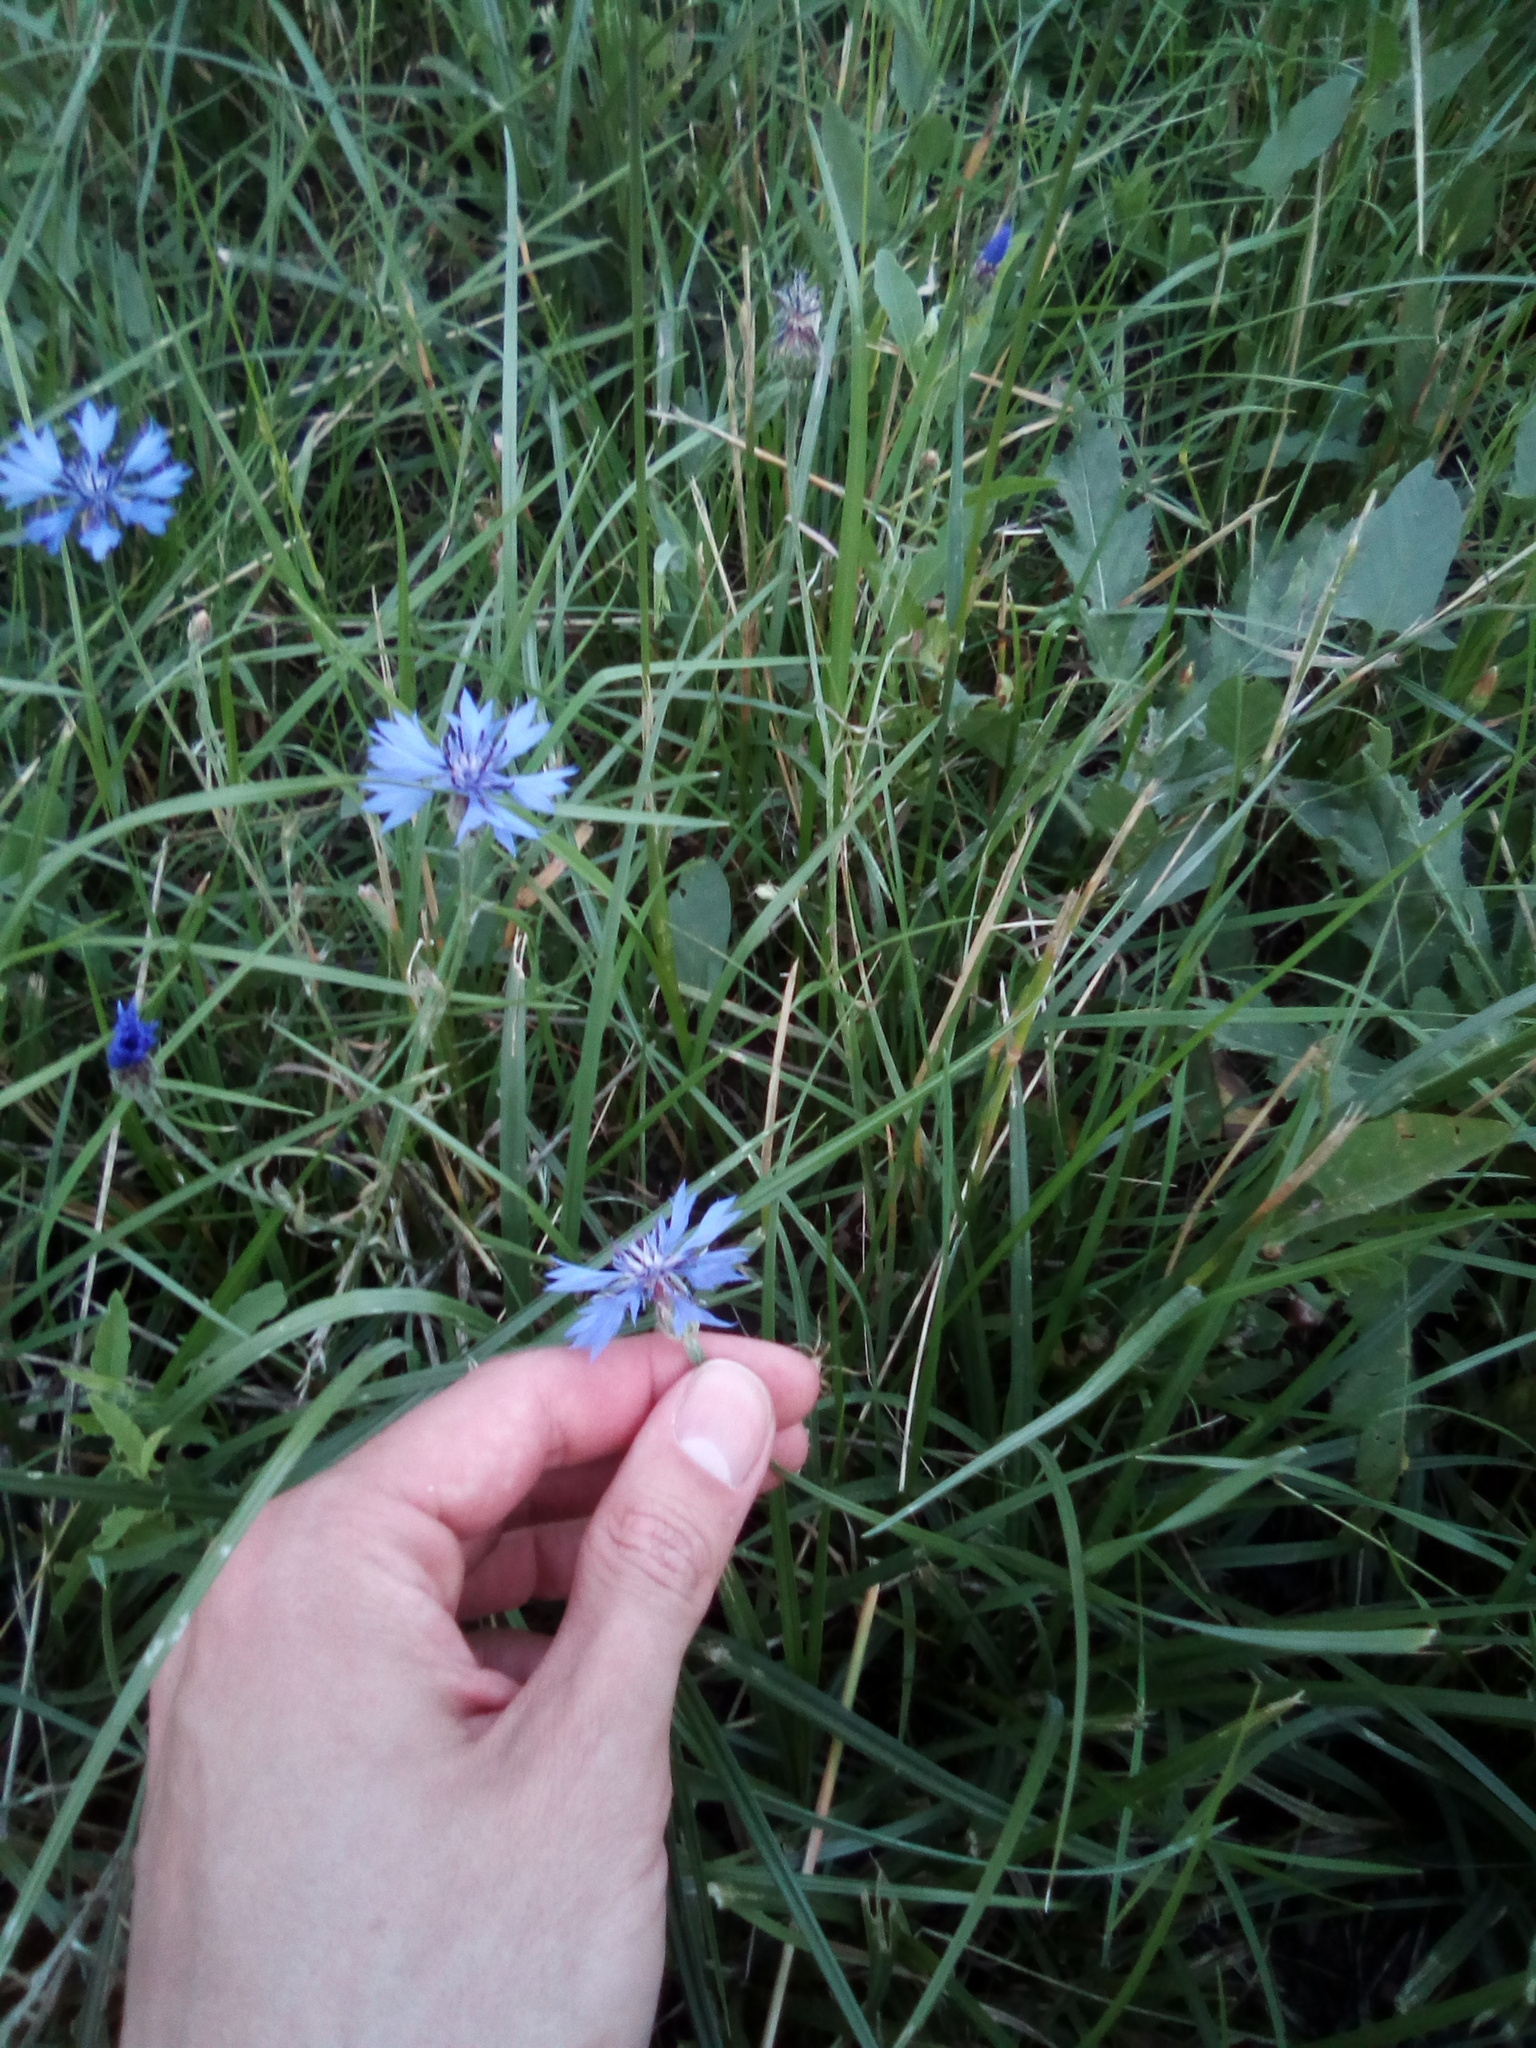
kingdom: Plantae
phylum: Tracheophyta
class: Magnoliopsida
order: Asterales
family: Asteraceae
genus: Centaurea
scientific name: Centaurea cyanus
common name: Cornflower
